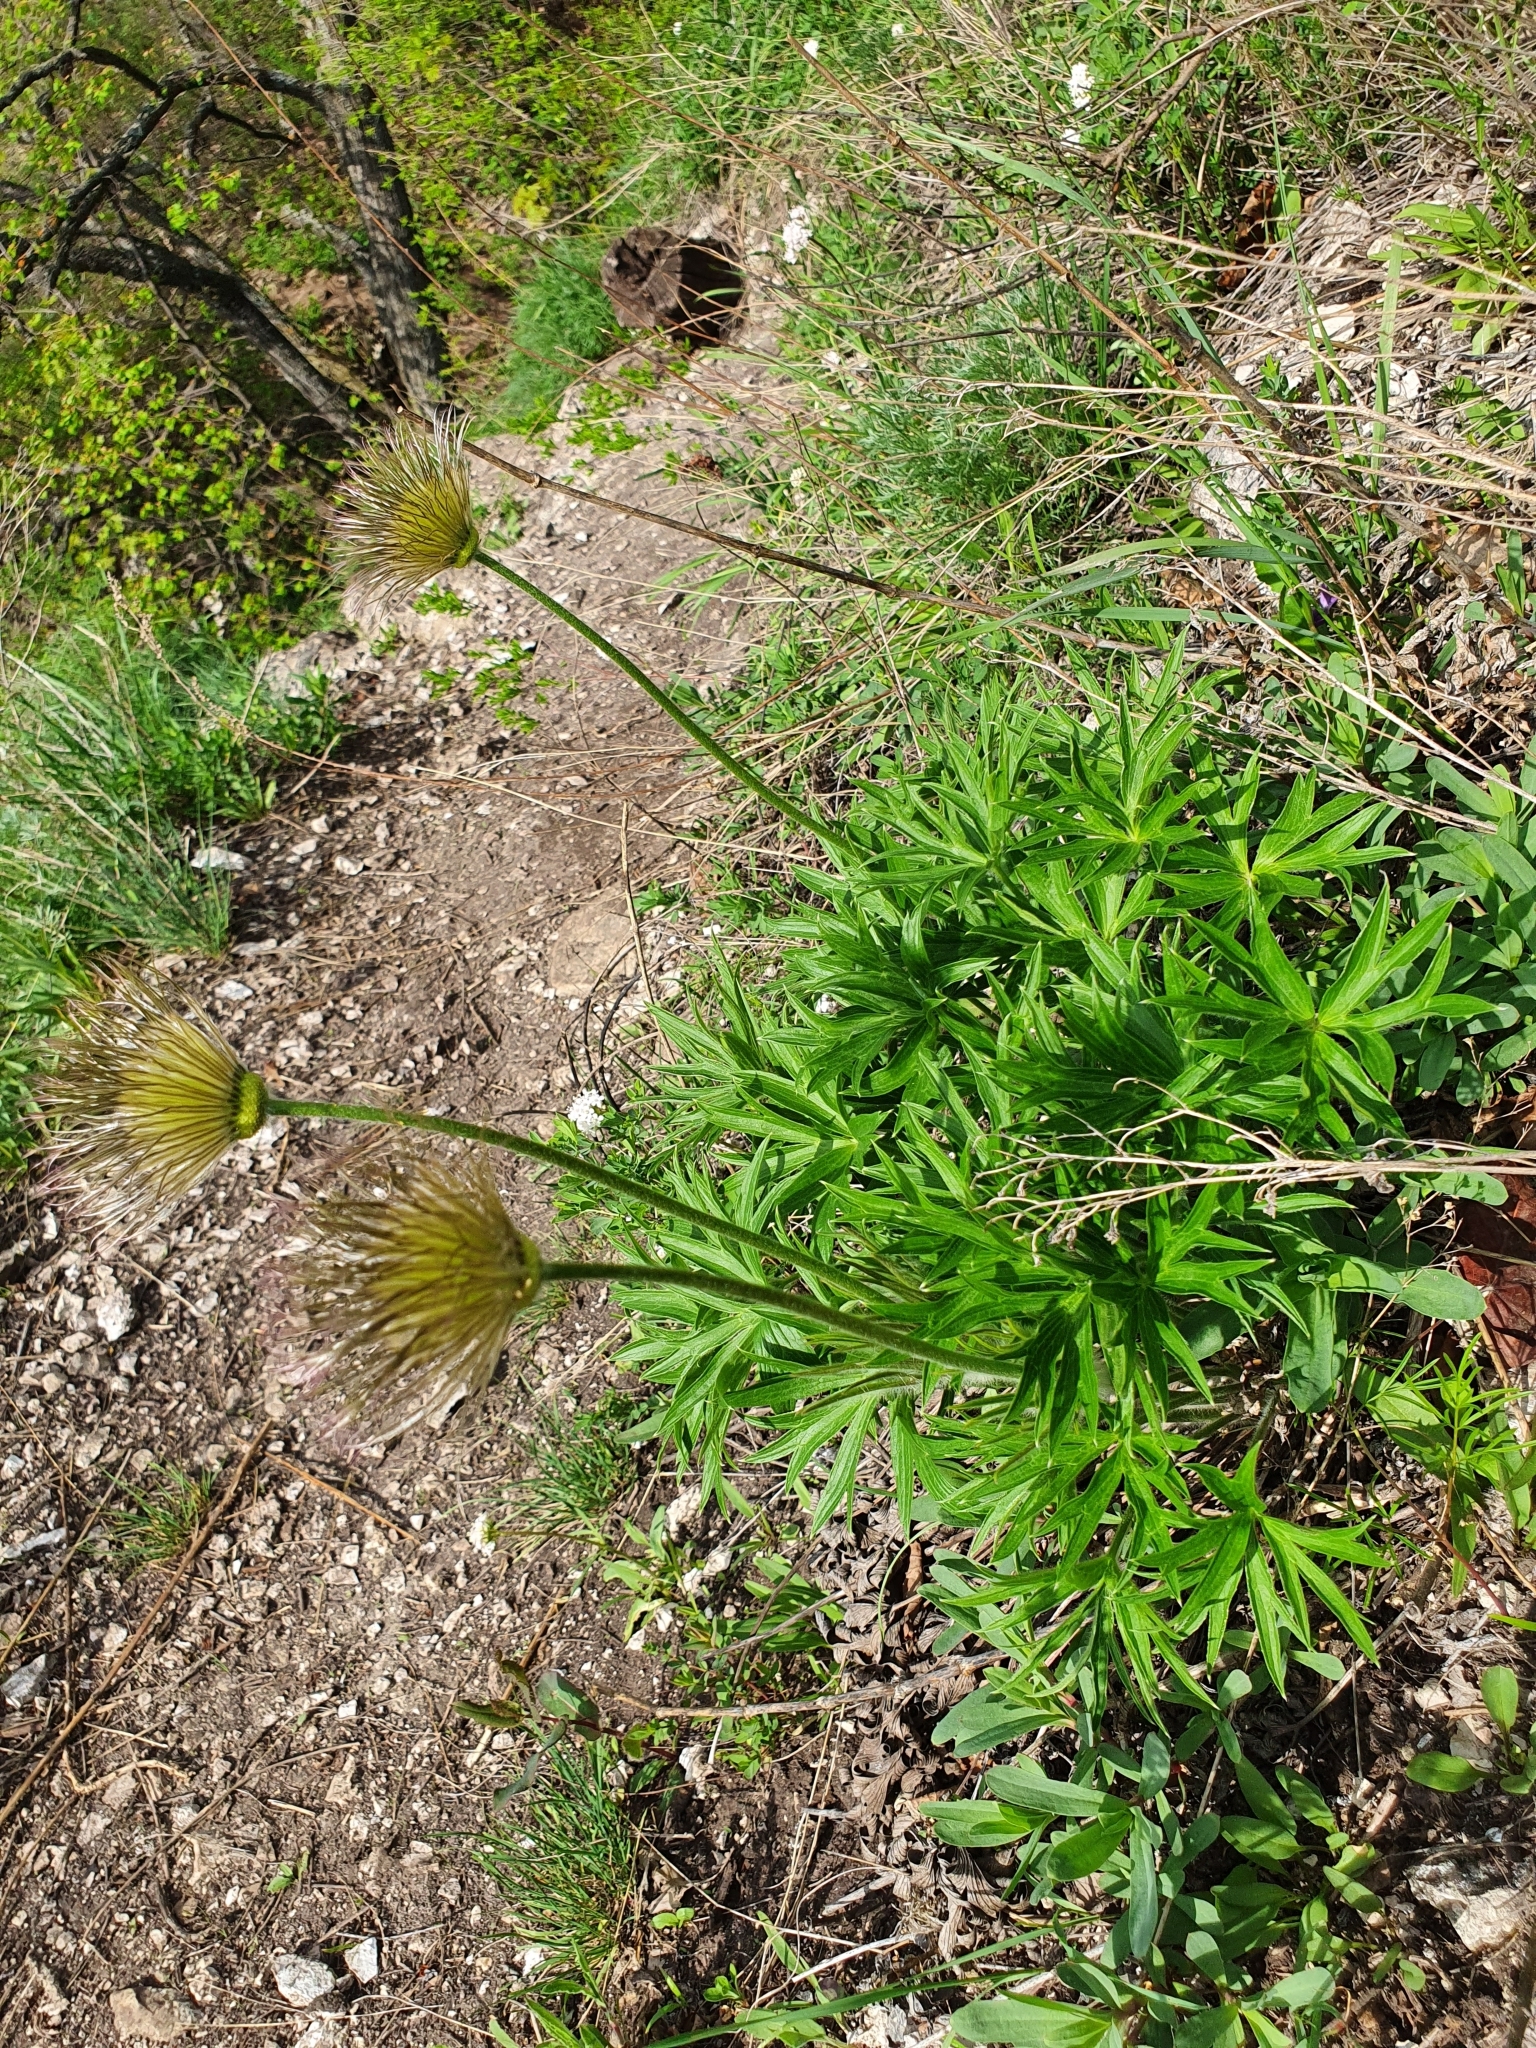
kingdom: Plantae
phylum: Tracheophyta
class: Magnoliopsida
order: Ranunculales
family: Ranunculaceae
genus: Pulsatilla
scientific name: Pulsatilla patens
